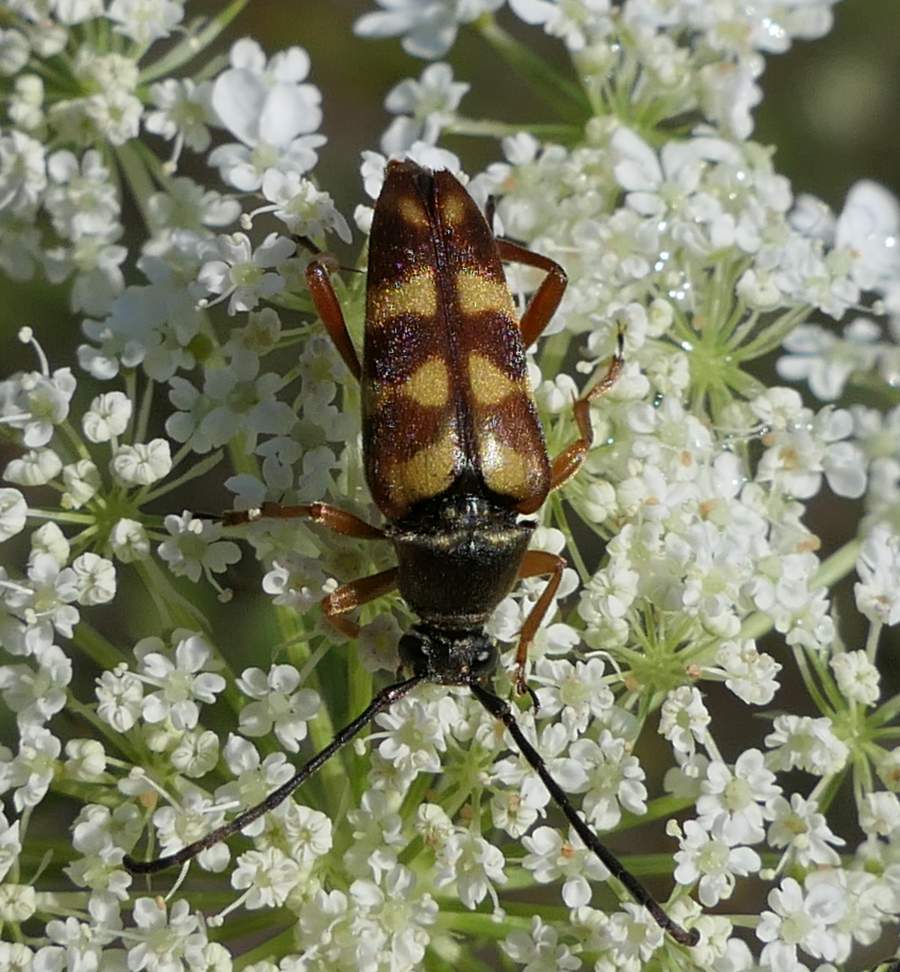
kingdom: Animalia
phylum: Arthropoda
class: Insecta
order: Coleoptera
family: Cerambycidae
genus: Typocerus
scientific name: Typocerus velutinus
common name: Banded longhorn beetle
